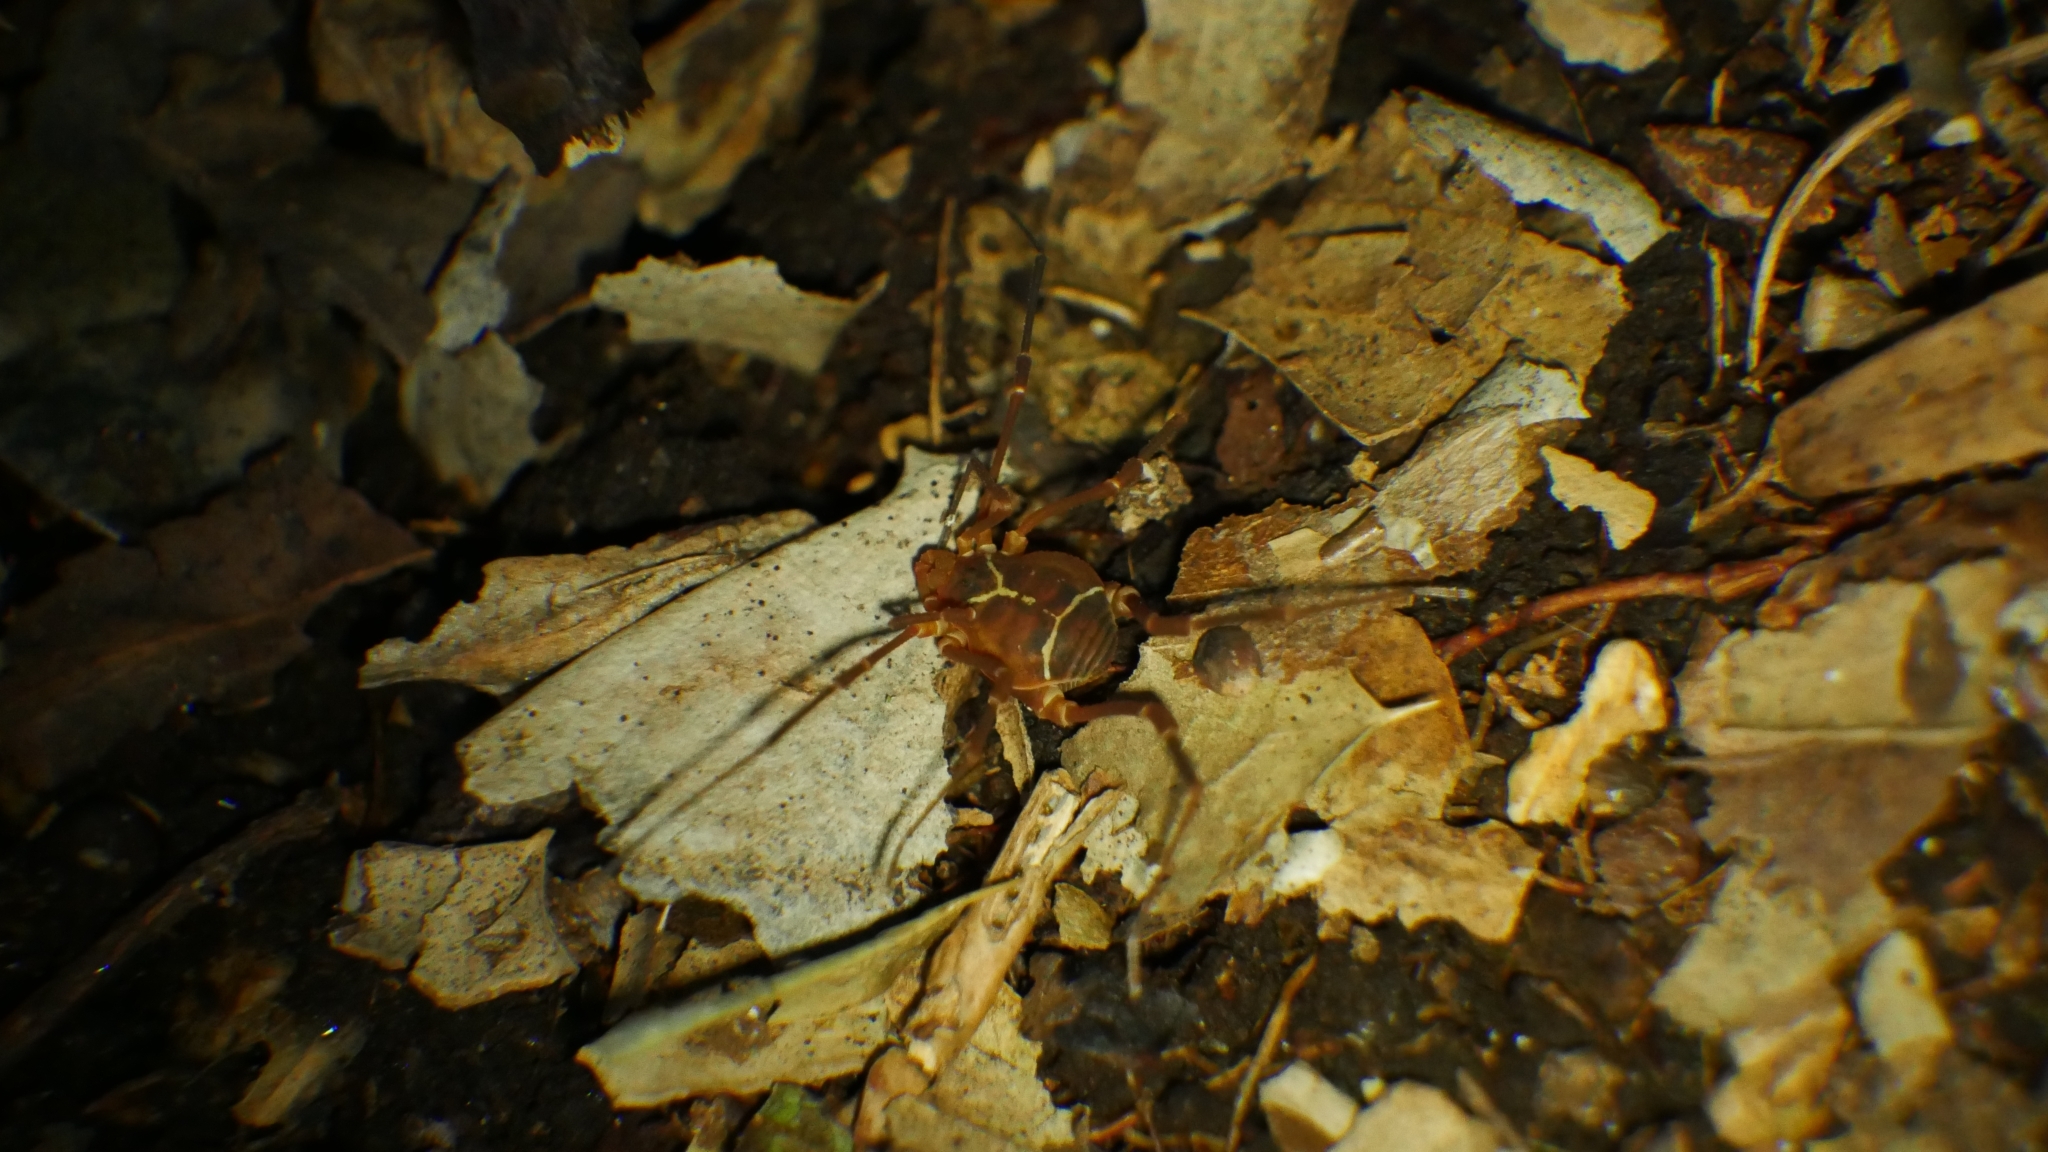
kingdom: Animalia
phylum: Arthropoda
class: Arachnida
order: Opiliones
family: Cosmetidae
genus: Libitioides
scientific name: Libitioides sayi
